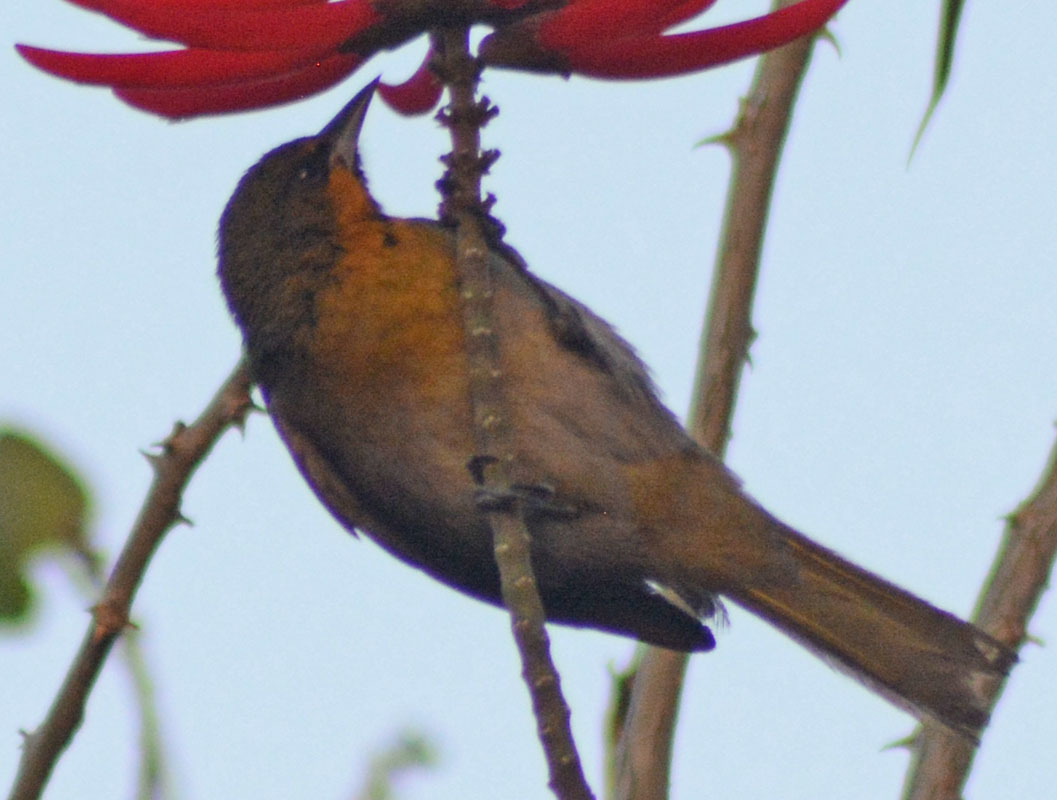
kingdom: Animalia
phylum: Chordata
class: Aves
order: Passeriformes
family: Icteridae
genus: Icterus
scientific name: Icterus abeillei
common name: Black-backed oriole
